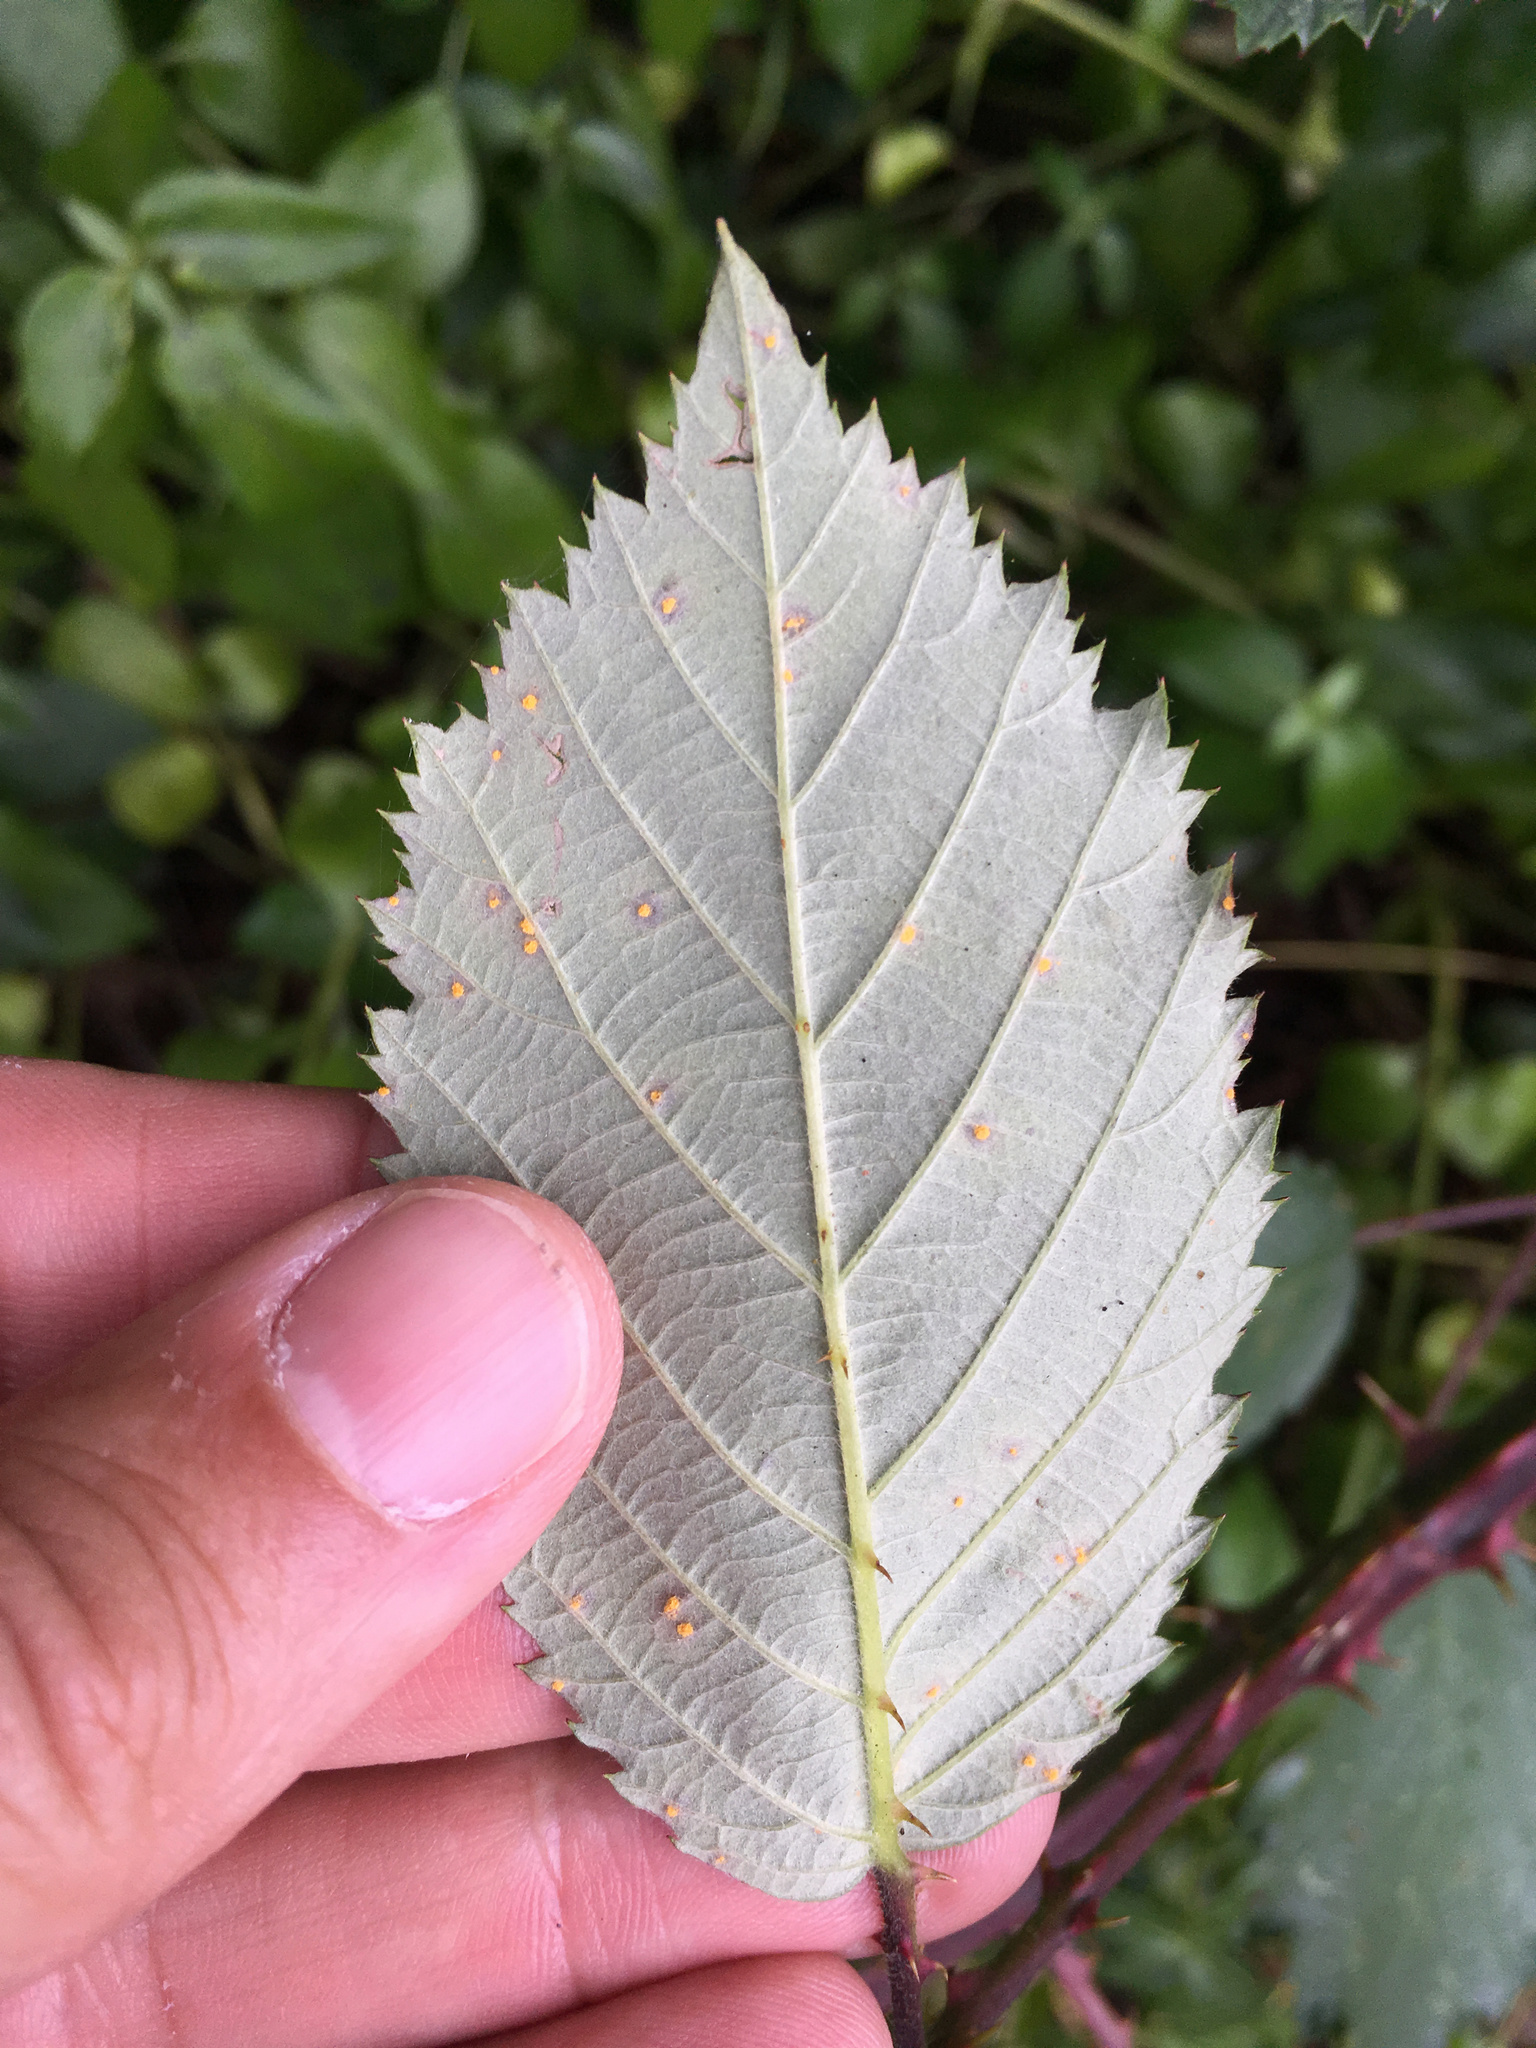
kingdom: Fungi
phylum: Basidiomycota
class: Pucciniomycetes
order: Pucciniales
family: Phragmidiaceae
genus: Phragmidium
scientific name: Phragmidium violaceum
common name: Violet bramble rust
